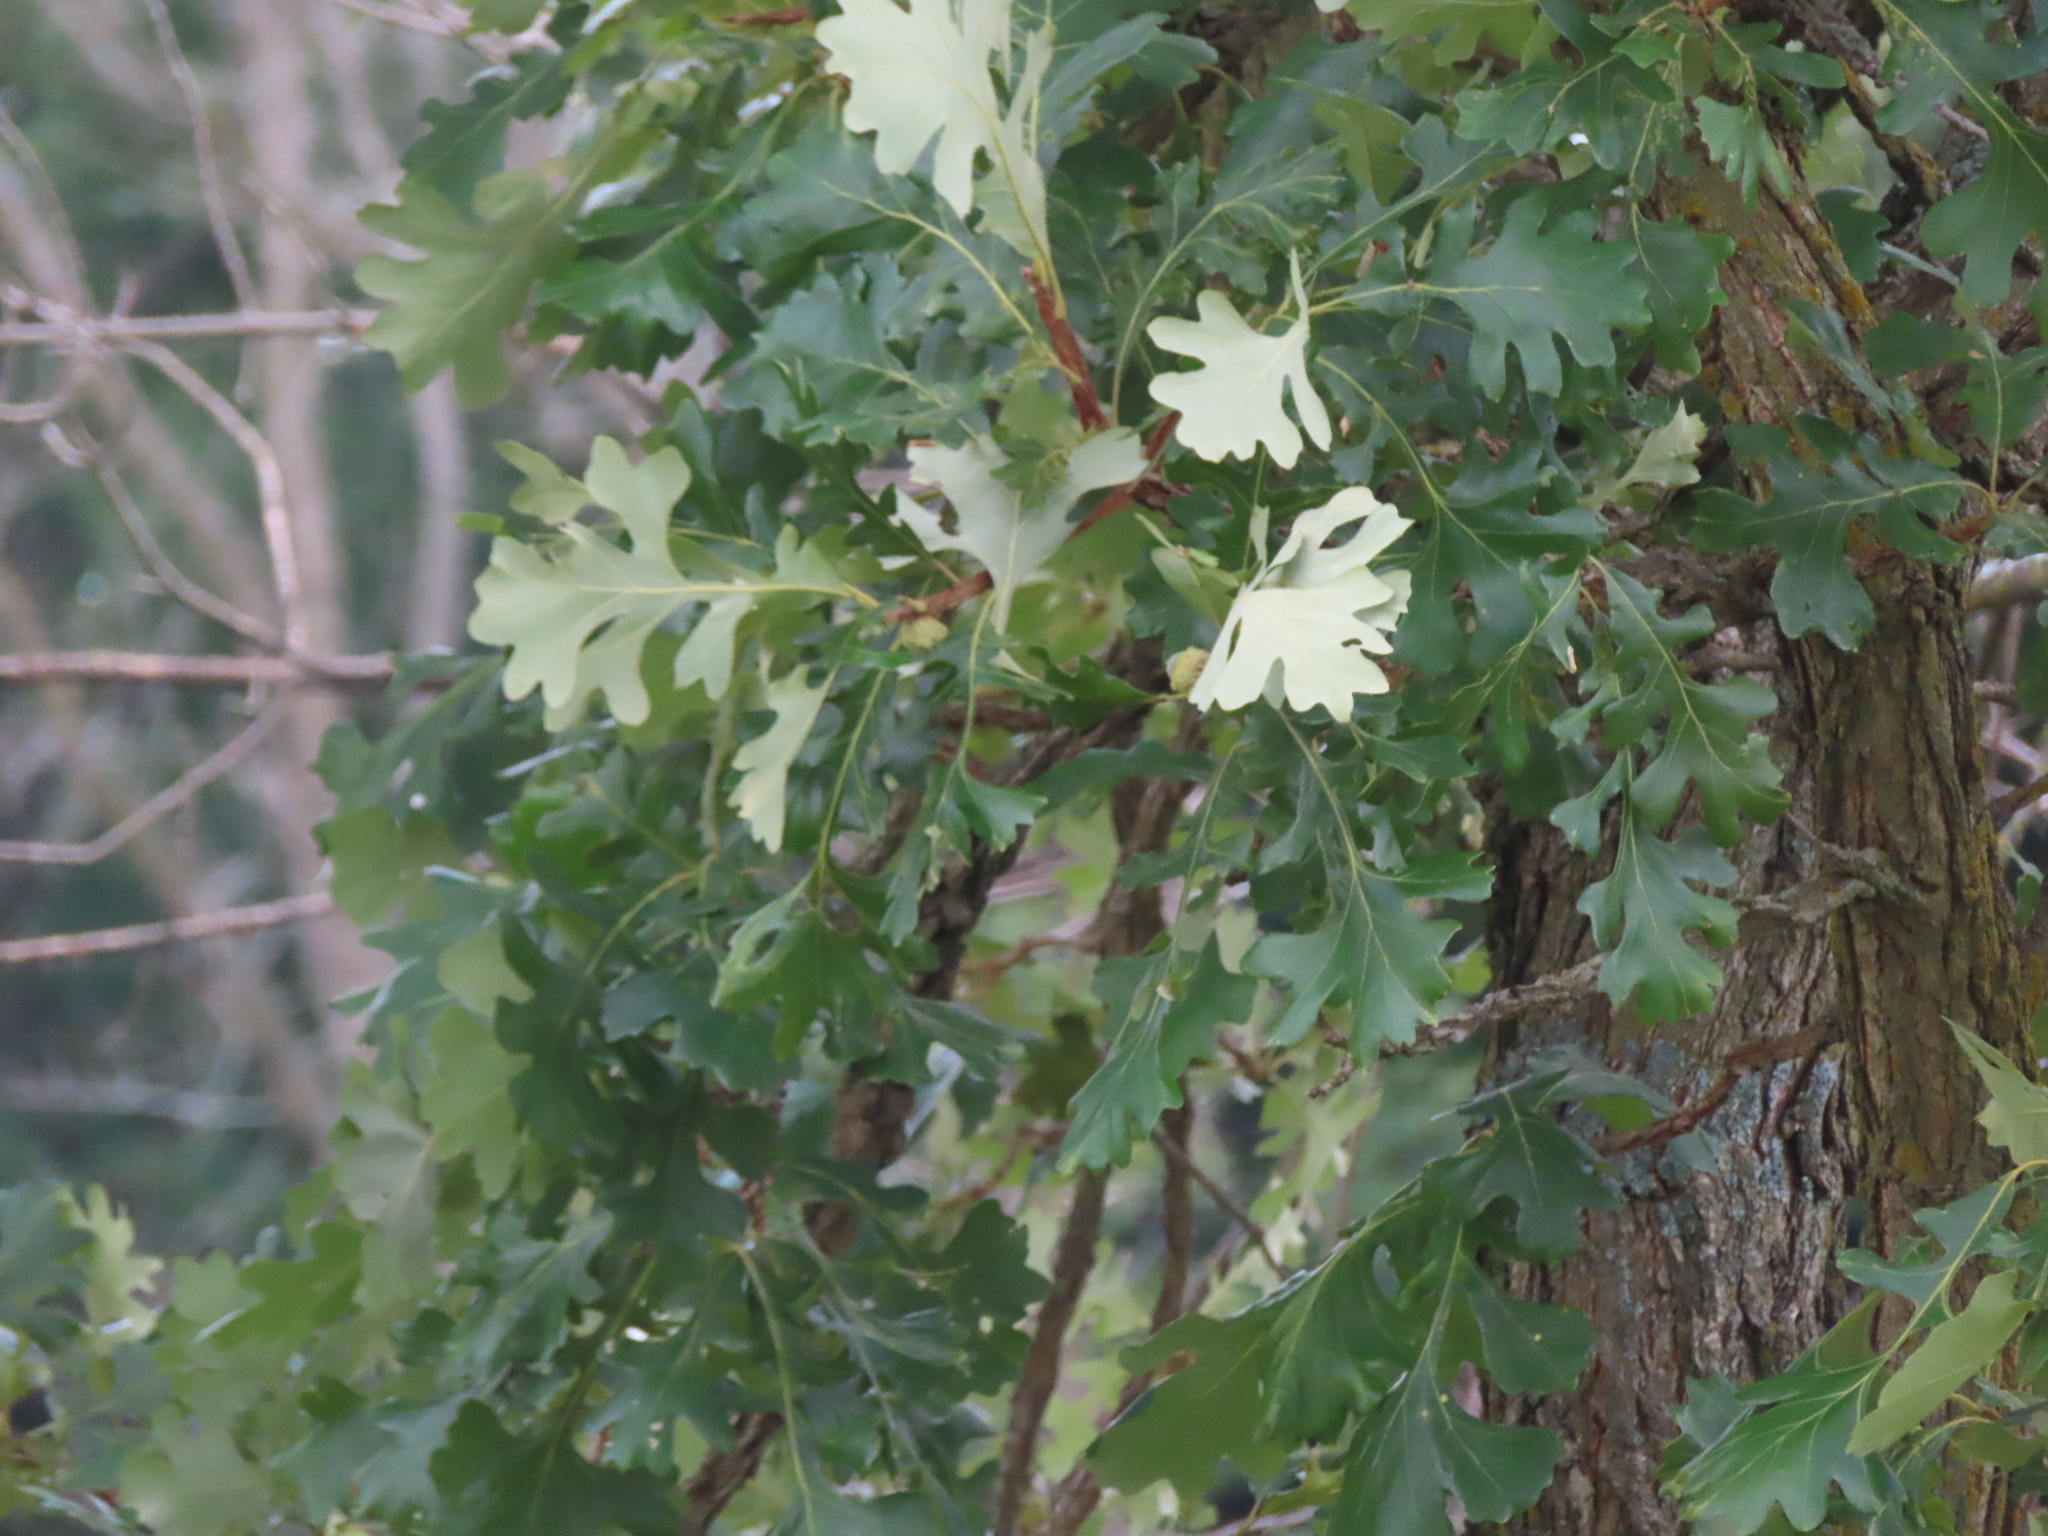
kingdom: Plantae
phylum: Tracheophyta
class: Magnoliopsida
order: Fagales
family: Fagaceae
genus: Quercus
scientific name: Quercus macrocarpa
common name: Bur oak
